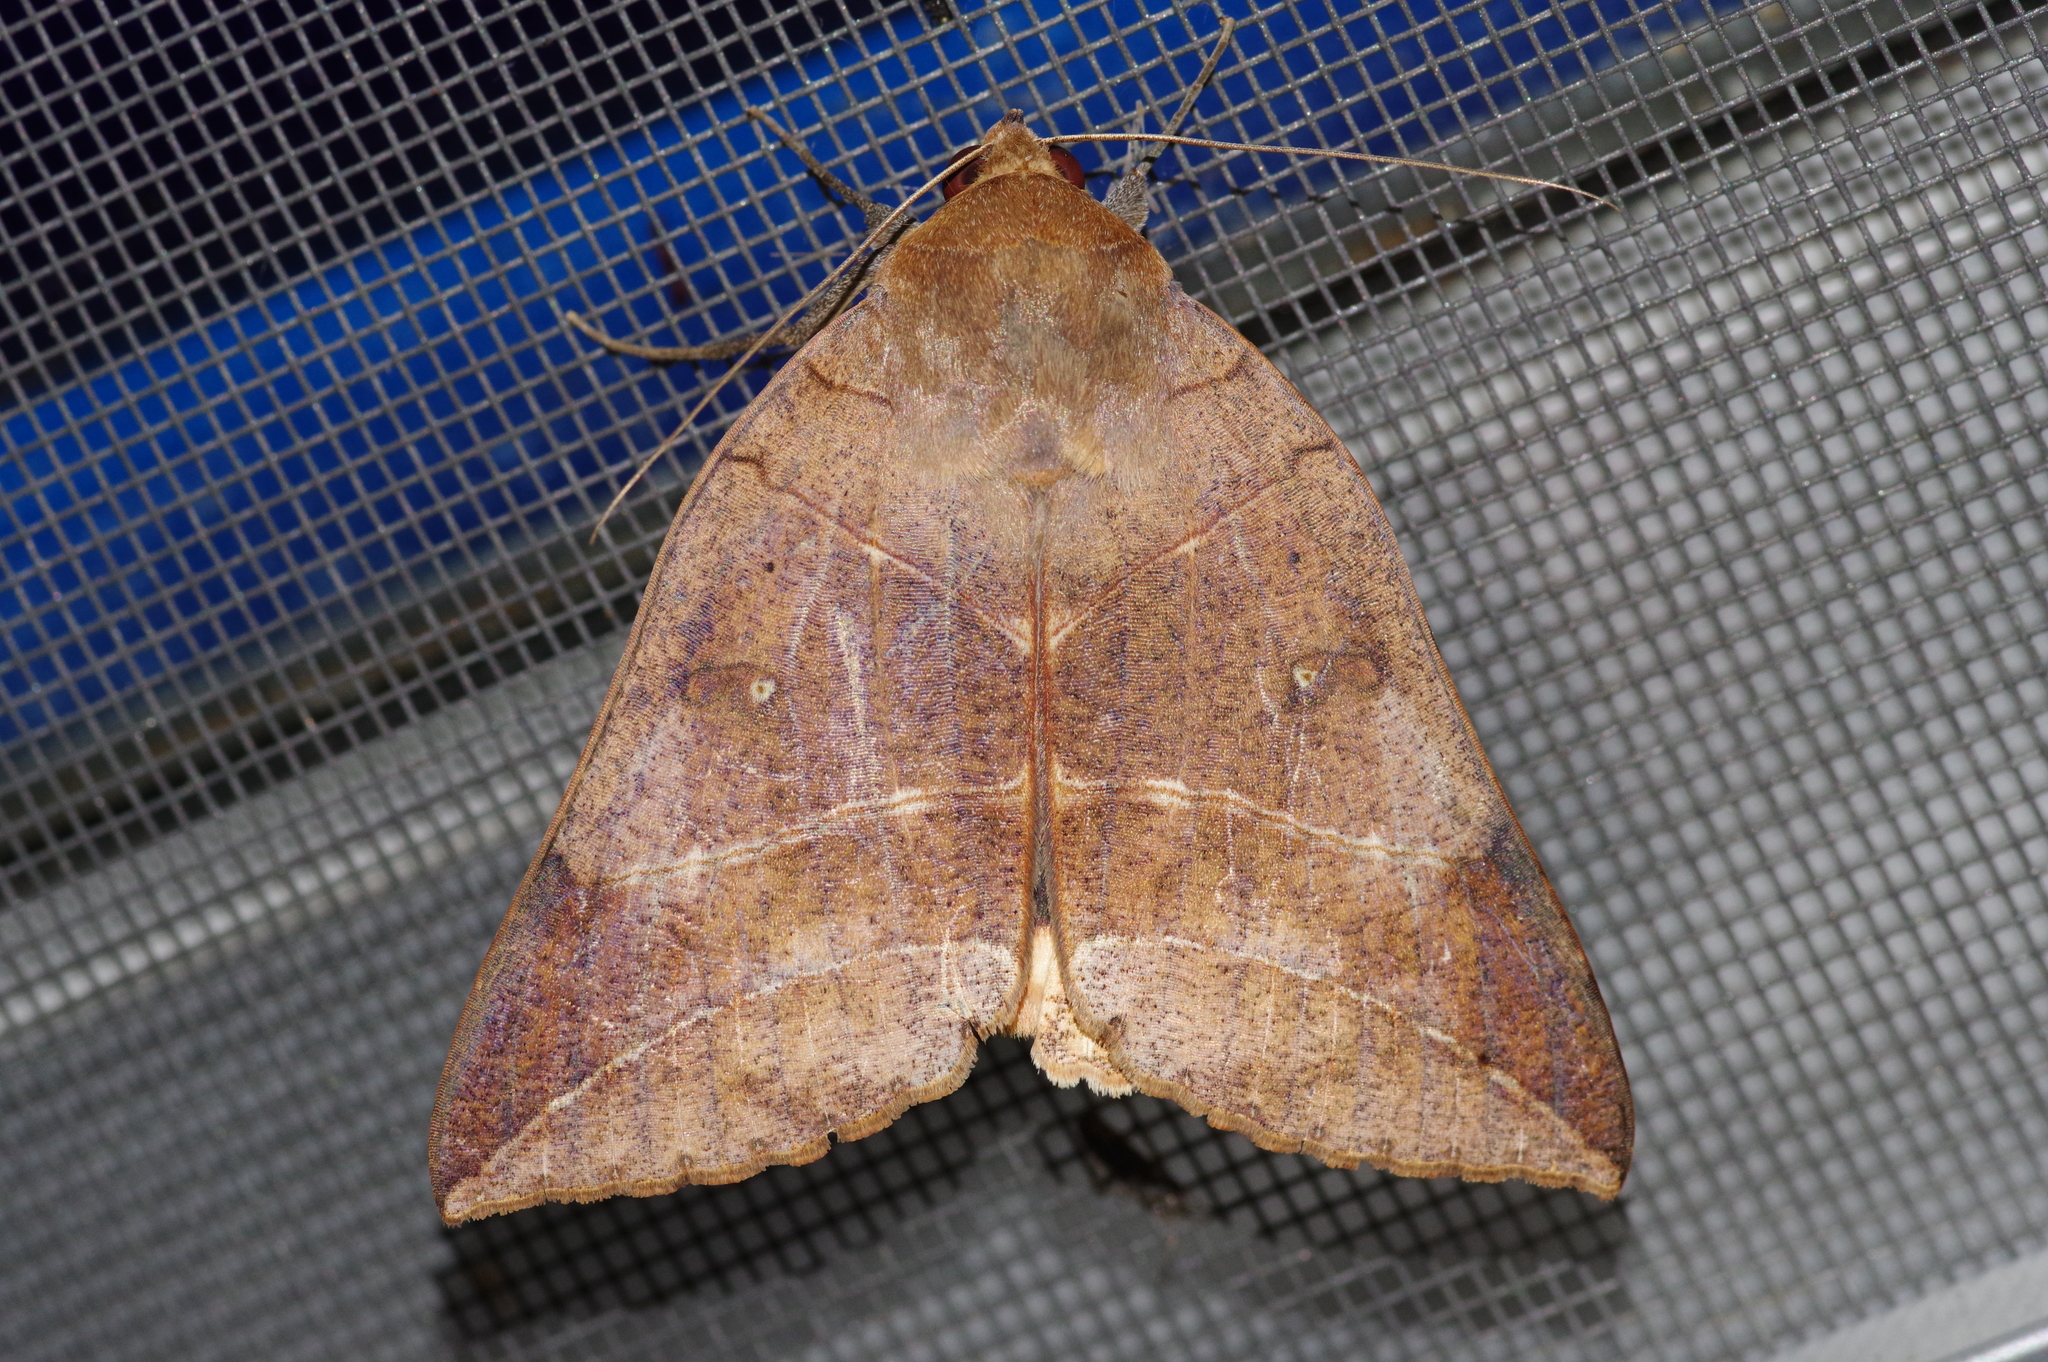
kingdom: Animalia
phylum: Arthropoda
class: Insecta
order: Lepidoptera
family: Erebidae
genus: Thyas
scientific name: Thyas juno
